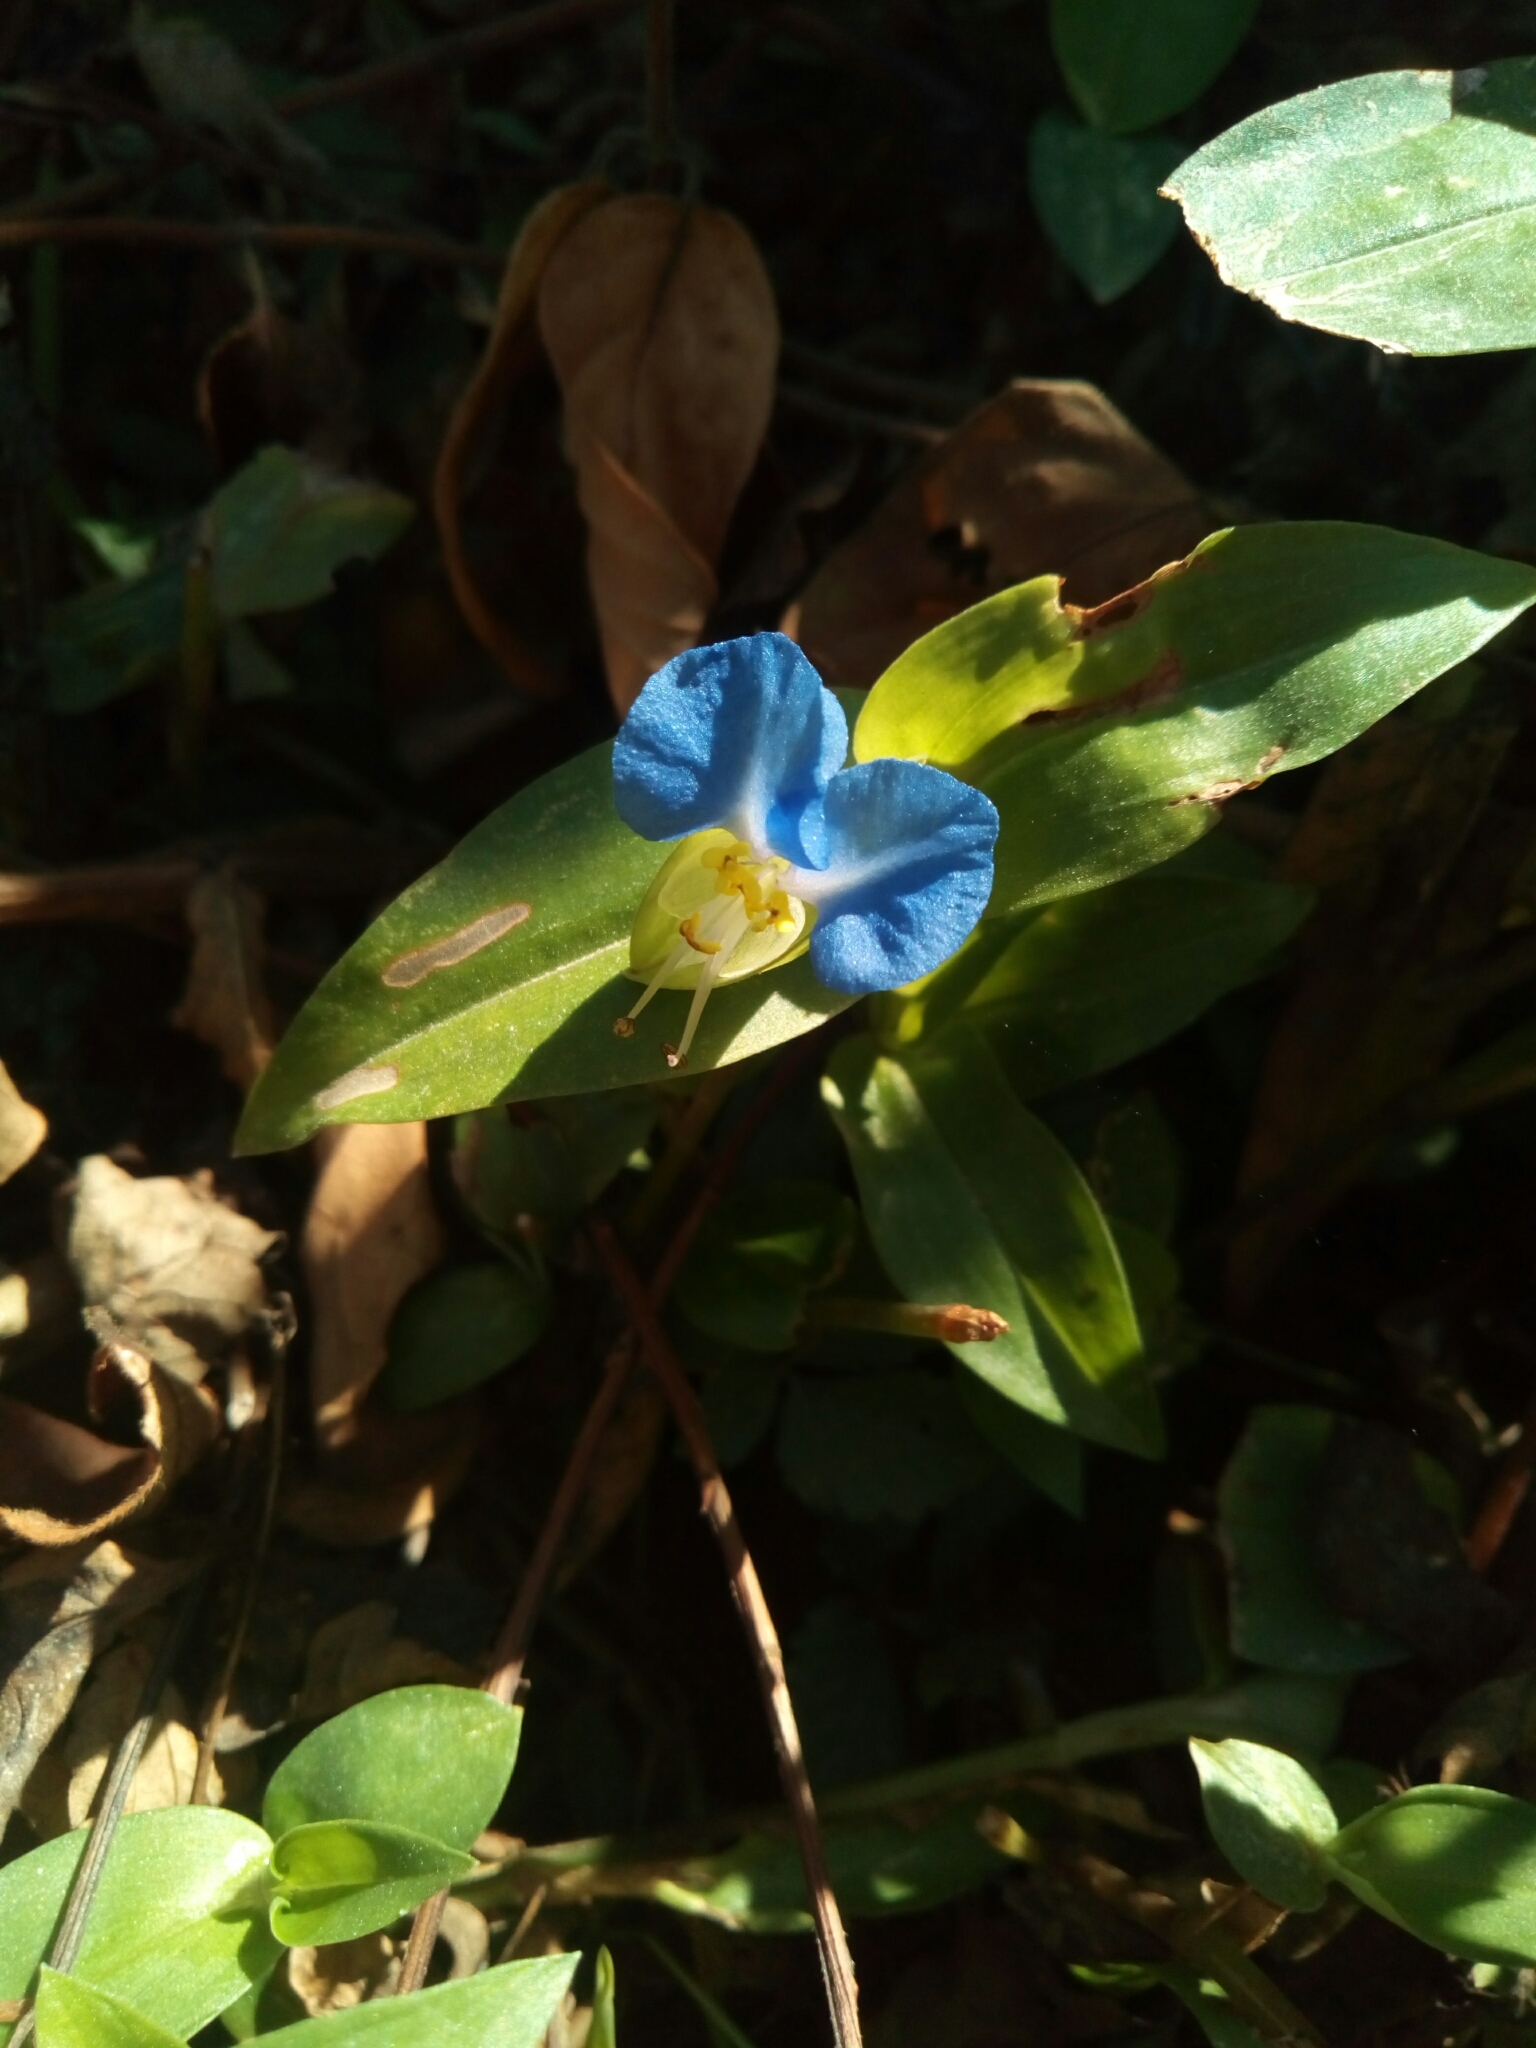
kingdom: Plantae
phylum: Tracheophyta
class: Liliopsida
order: Commelinales
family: Commelinaceae
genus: Commelina
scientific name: Commelina communis
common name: Asiatic dayflower
